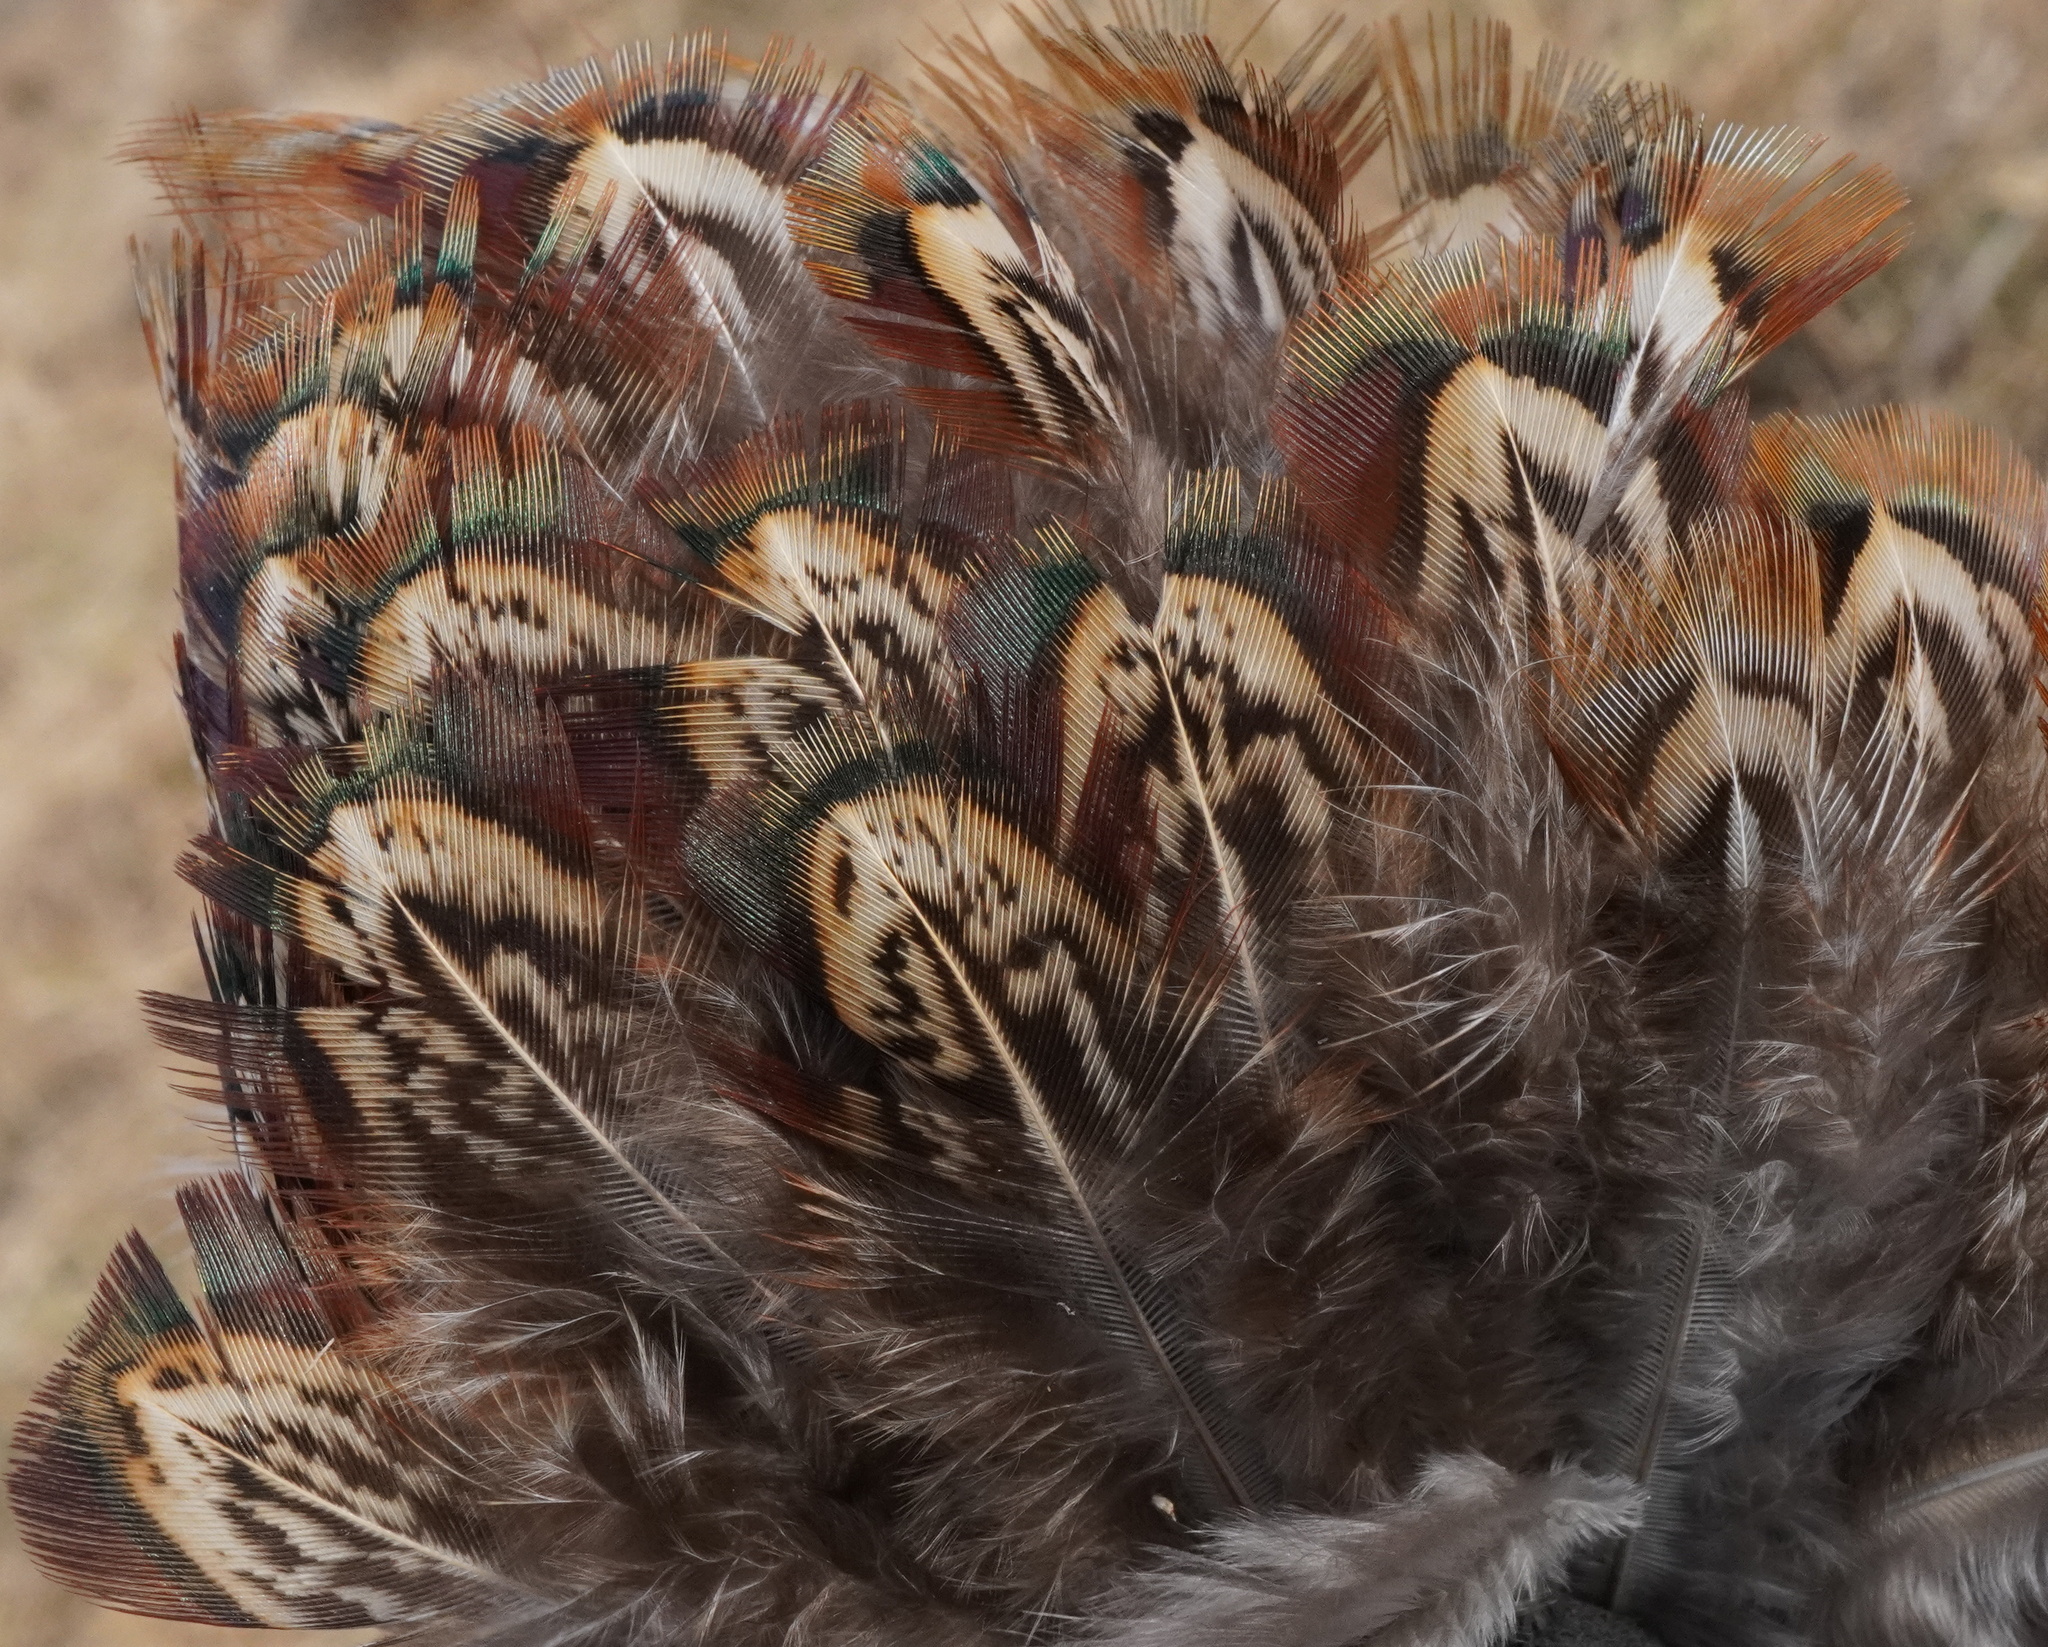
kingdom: Animalia
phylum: Chordata
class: Aves
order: Galliformes
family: Phasianidae
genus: Phasianus
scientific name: Phasianus colchicus
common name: Common pheasant
